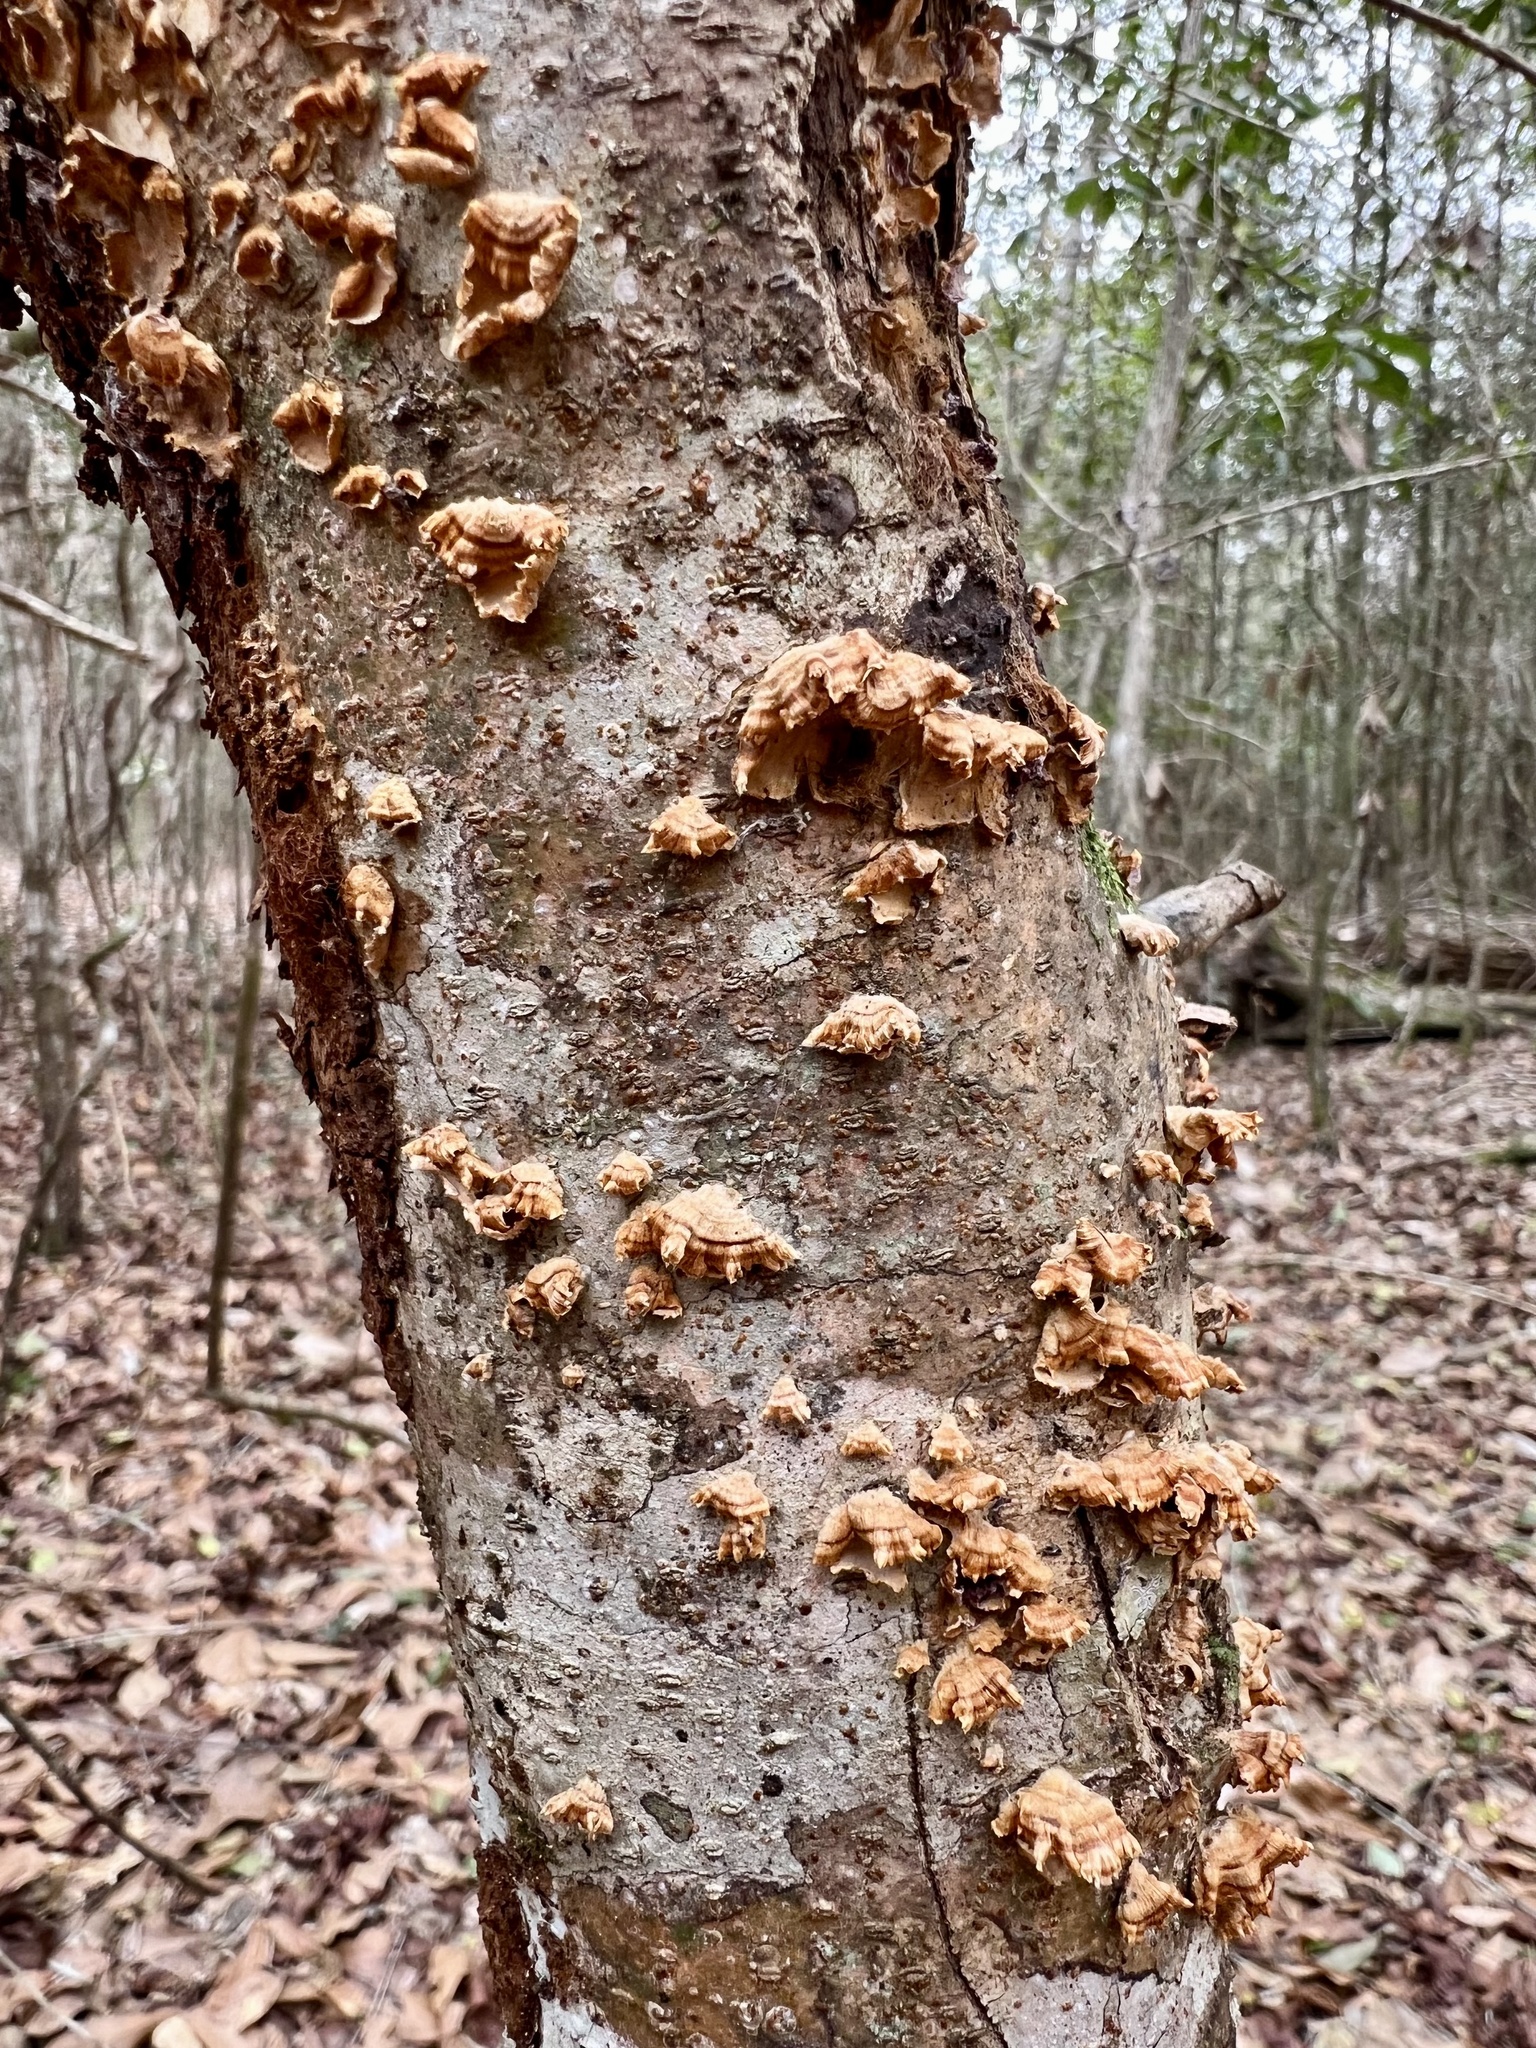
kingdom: Fungi
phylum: Basidiomycota
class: Agaricomycetes
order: Russulales
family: Stereaceae
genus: Stereum
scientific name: Stereum complicatum
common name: Crowded parchment
